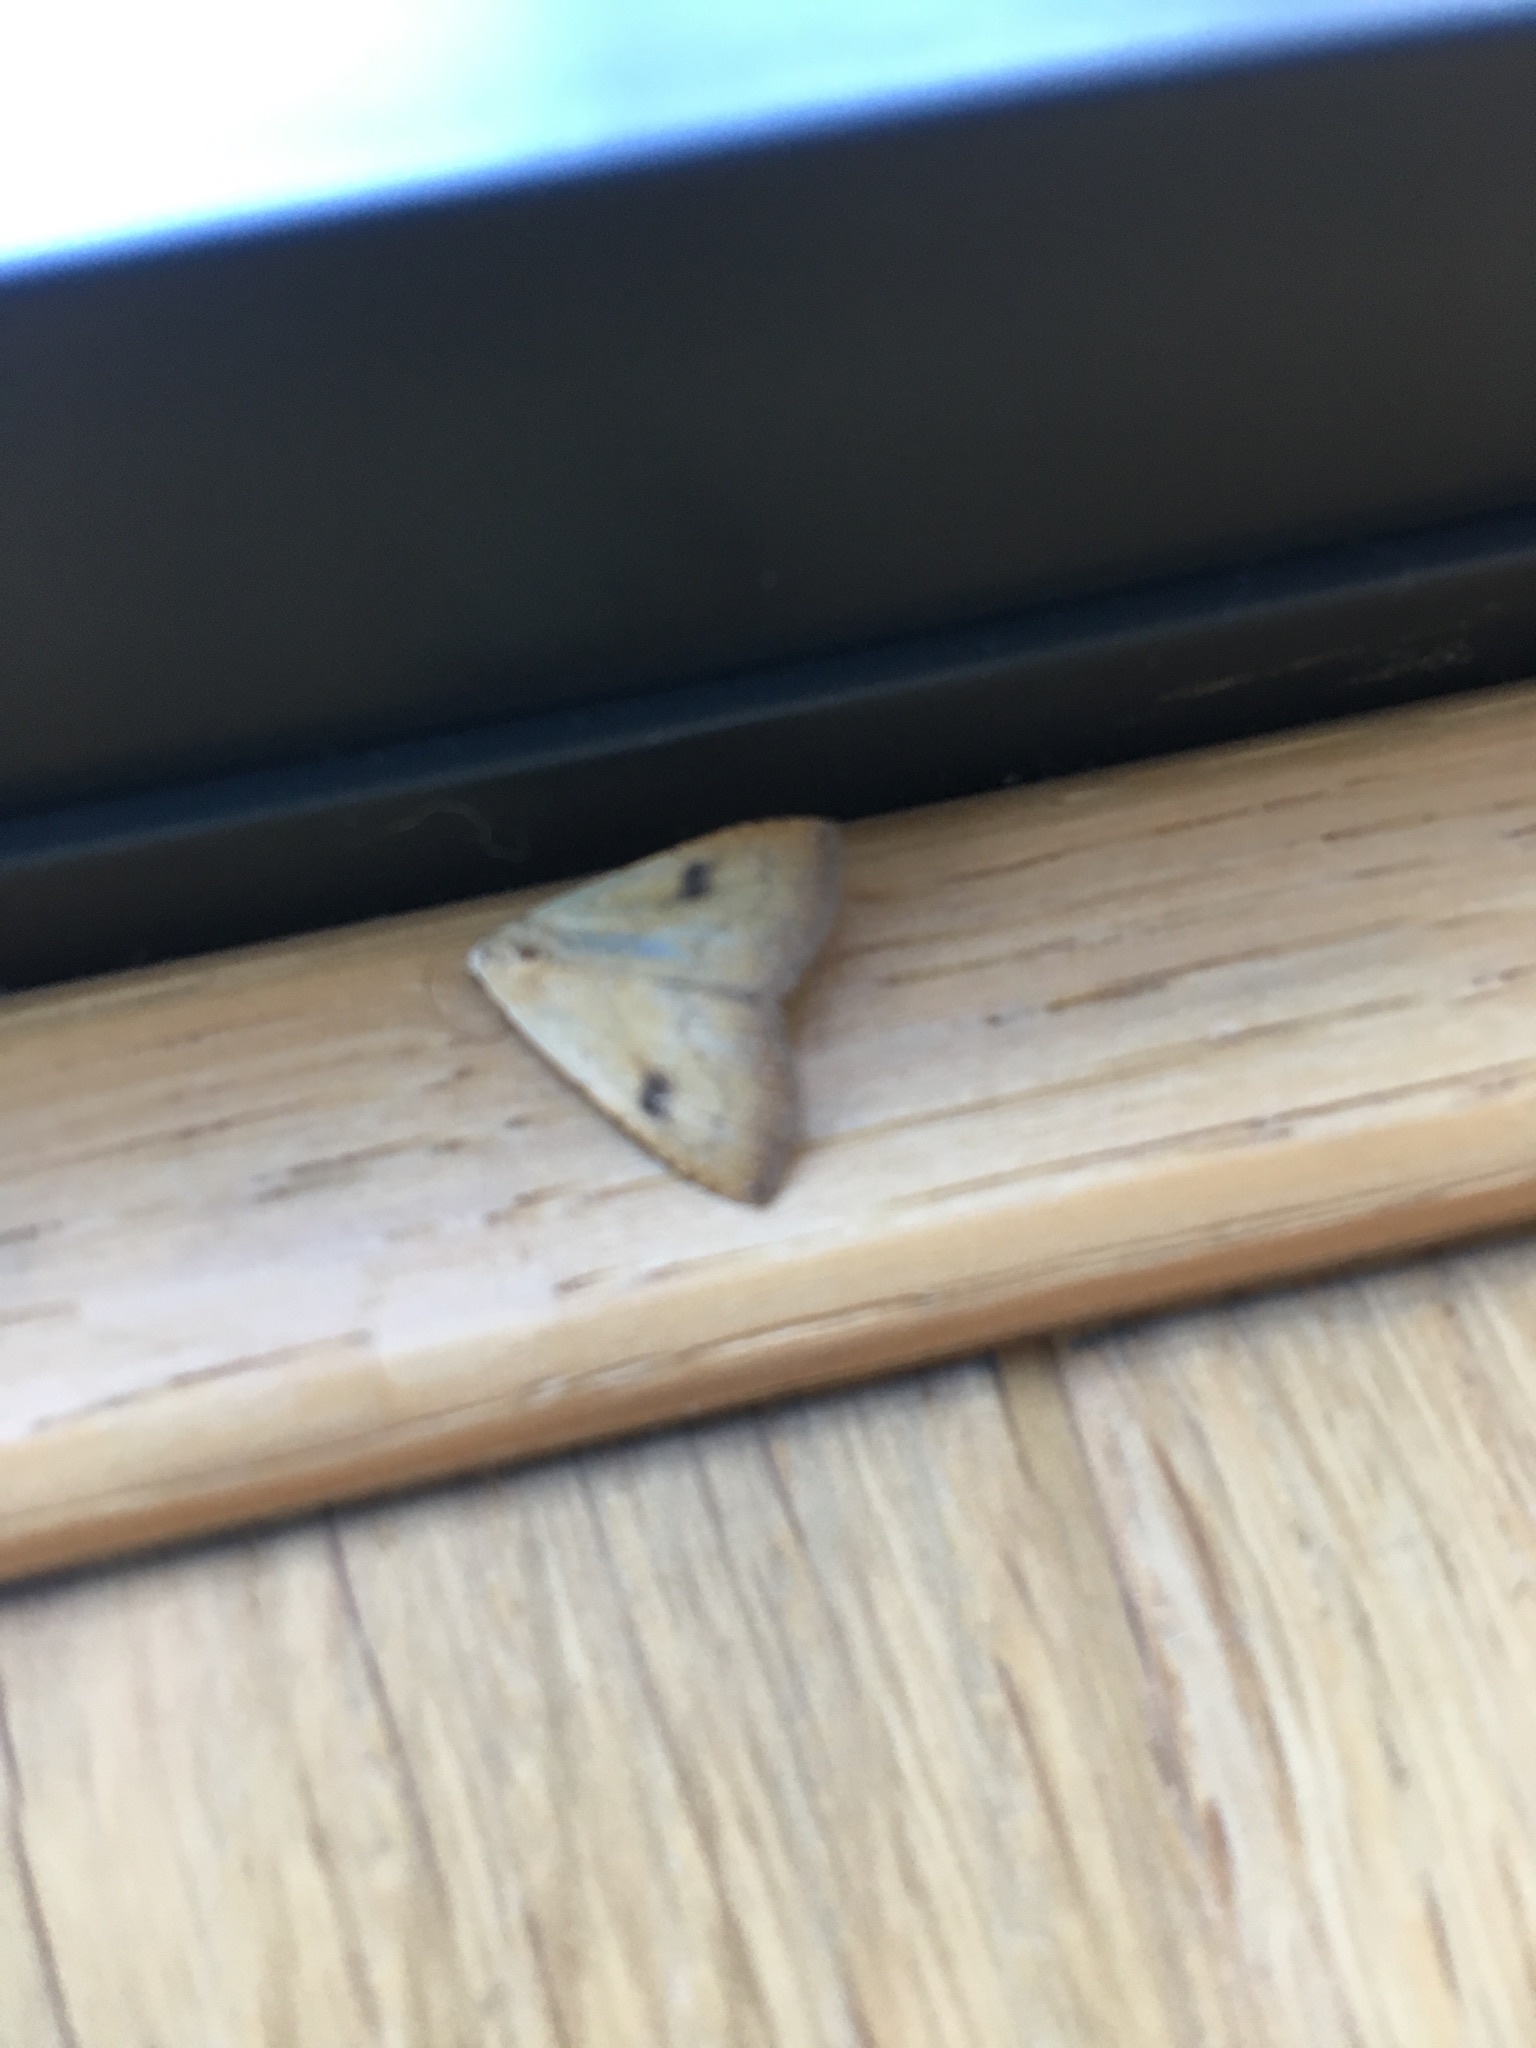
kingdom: Animalia
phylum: Arthropoda
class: Insecta
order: Lepidoptera
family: Erebidae
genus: Rivula
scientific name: Rivula sericealis
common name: Straw dot
